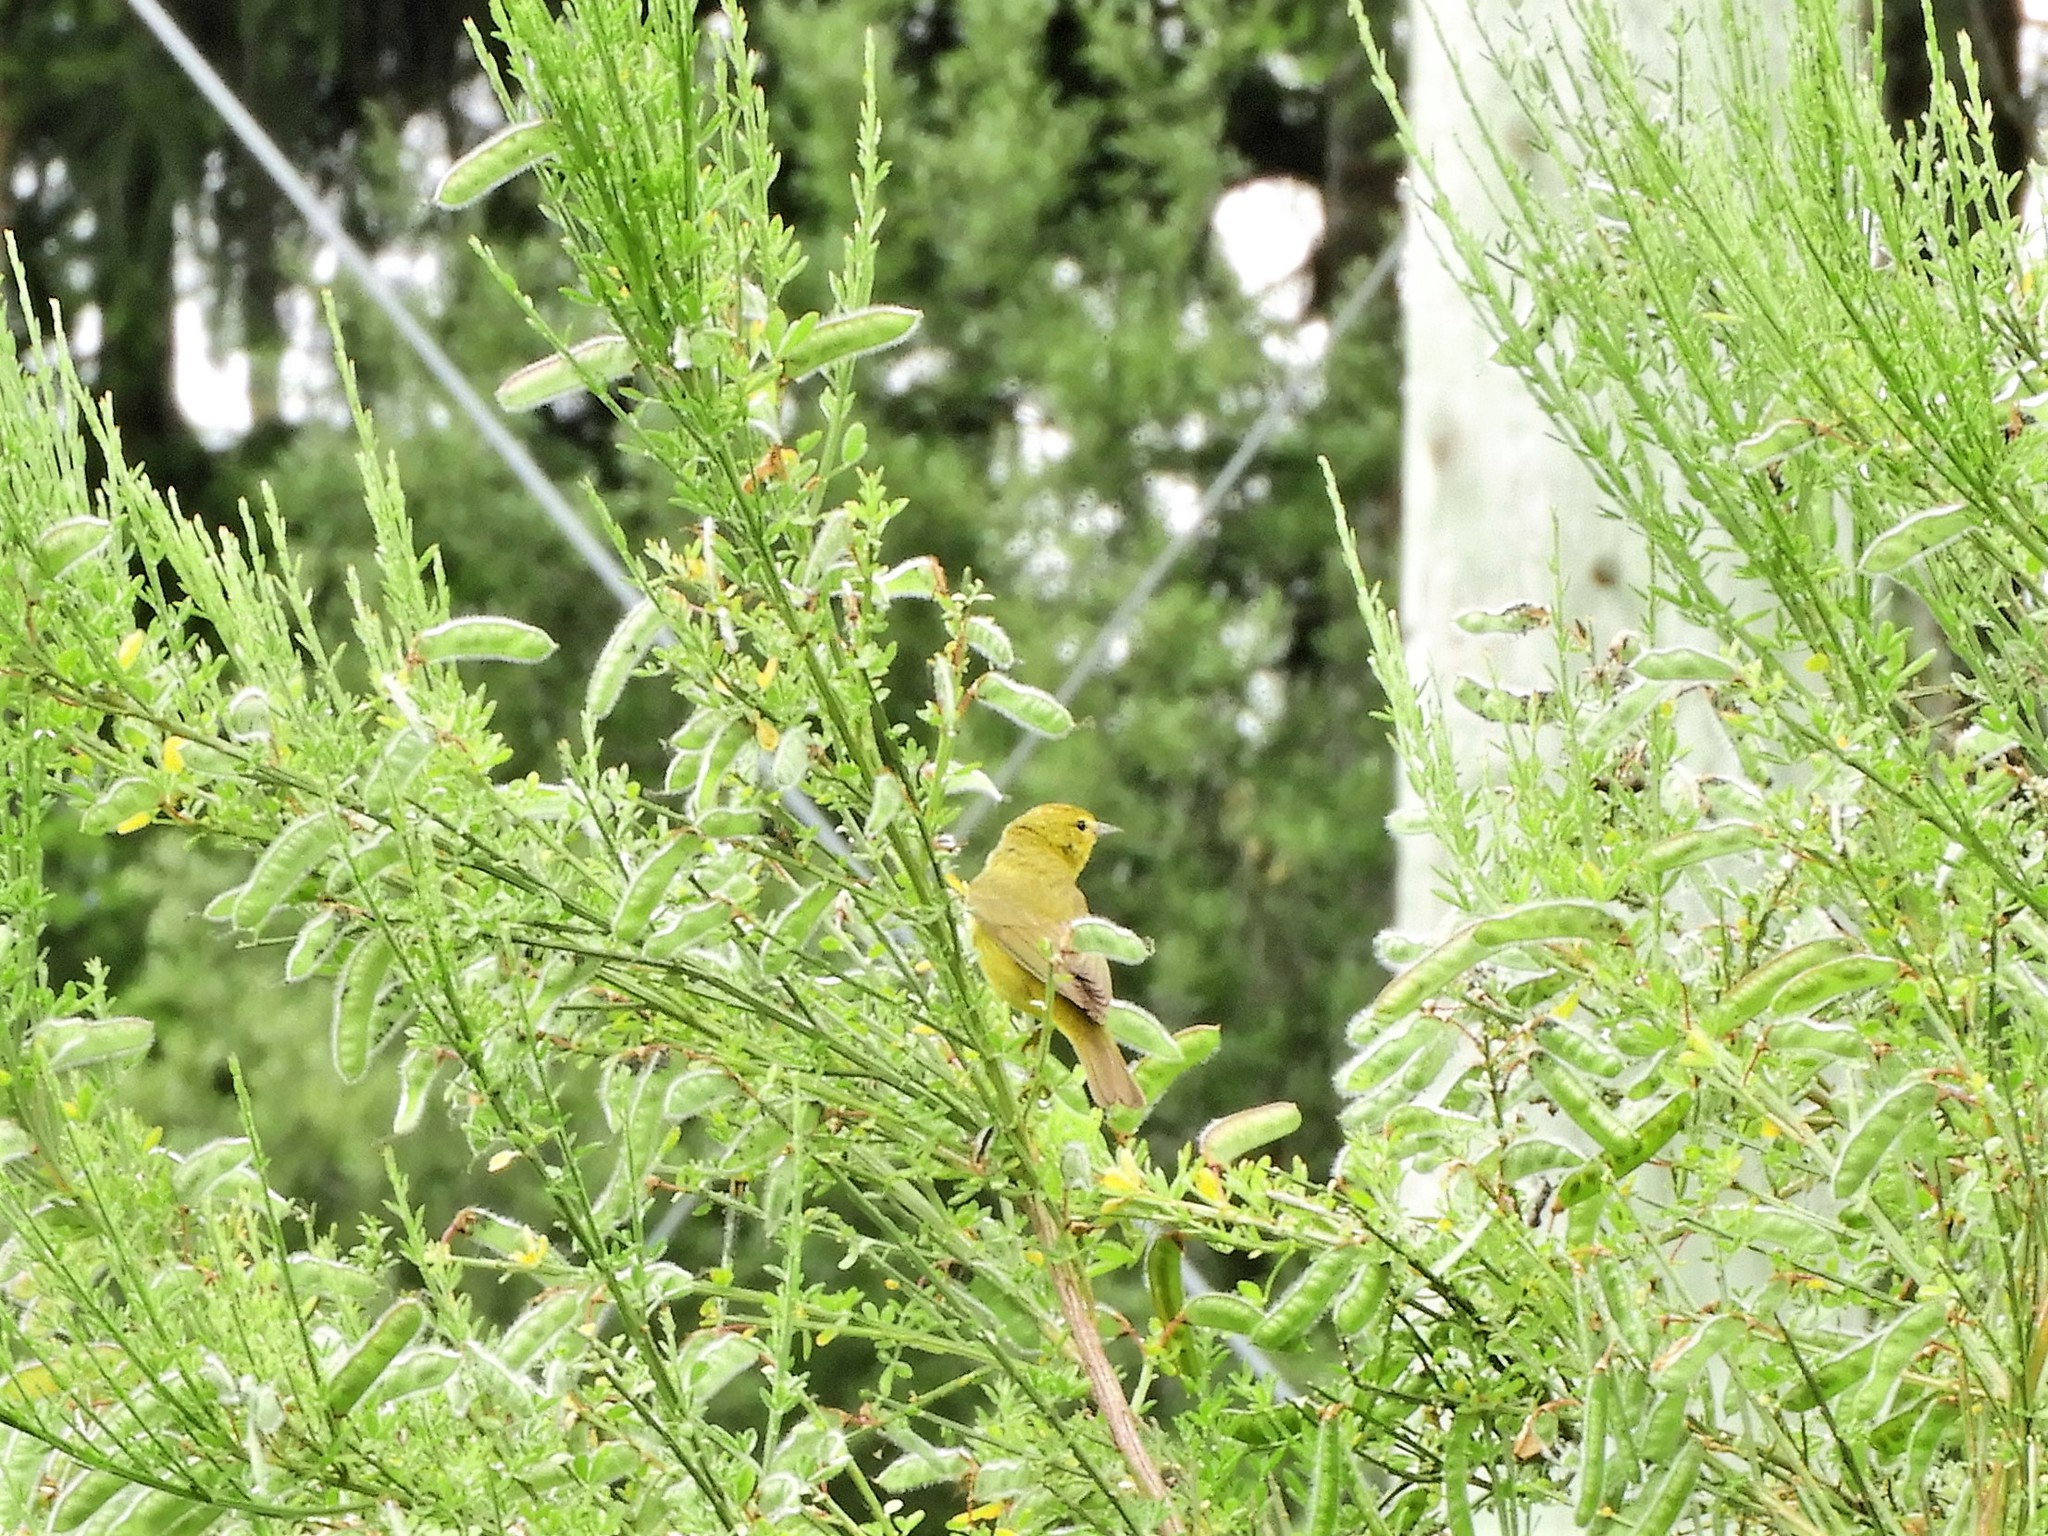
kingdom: Animalia
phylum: Chordata
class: Aves
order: Passeriformes
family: Parulidae
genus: Leiothlypis
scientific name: Leiothlypis celata
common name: Orange-crowned warbler
